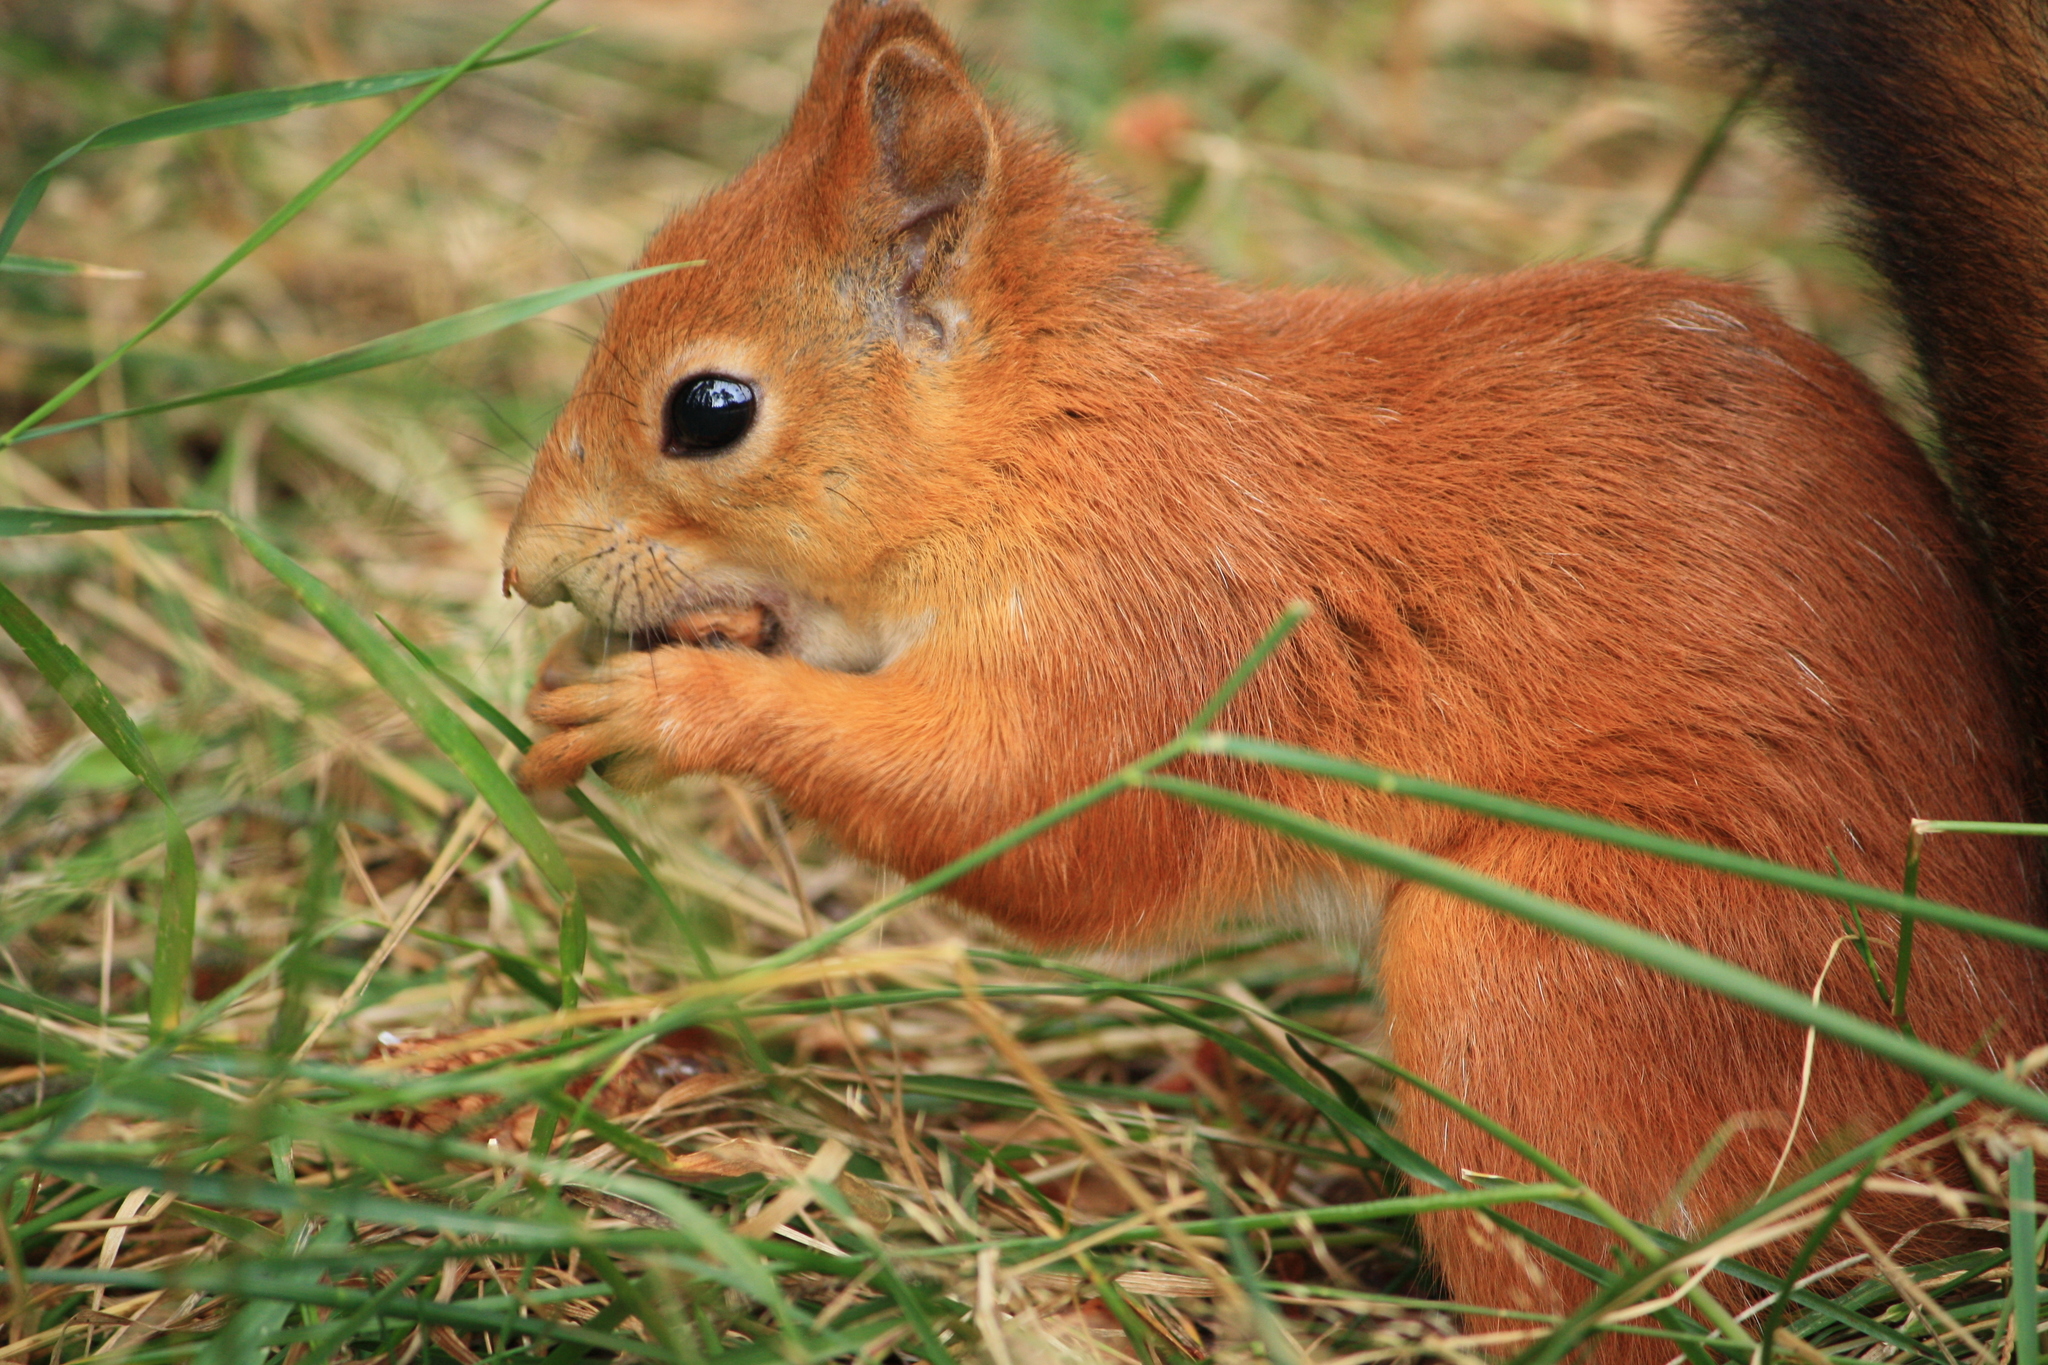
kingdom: Animalia
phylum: Chordata
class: Mammalia
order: Rodentia
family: Sciuridae
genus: Sciurus
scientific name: Sciurus vulgaris
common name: Eurasian red squirrel
